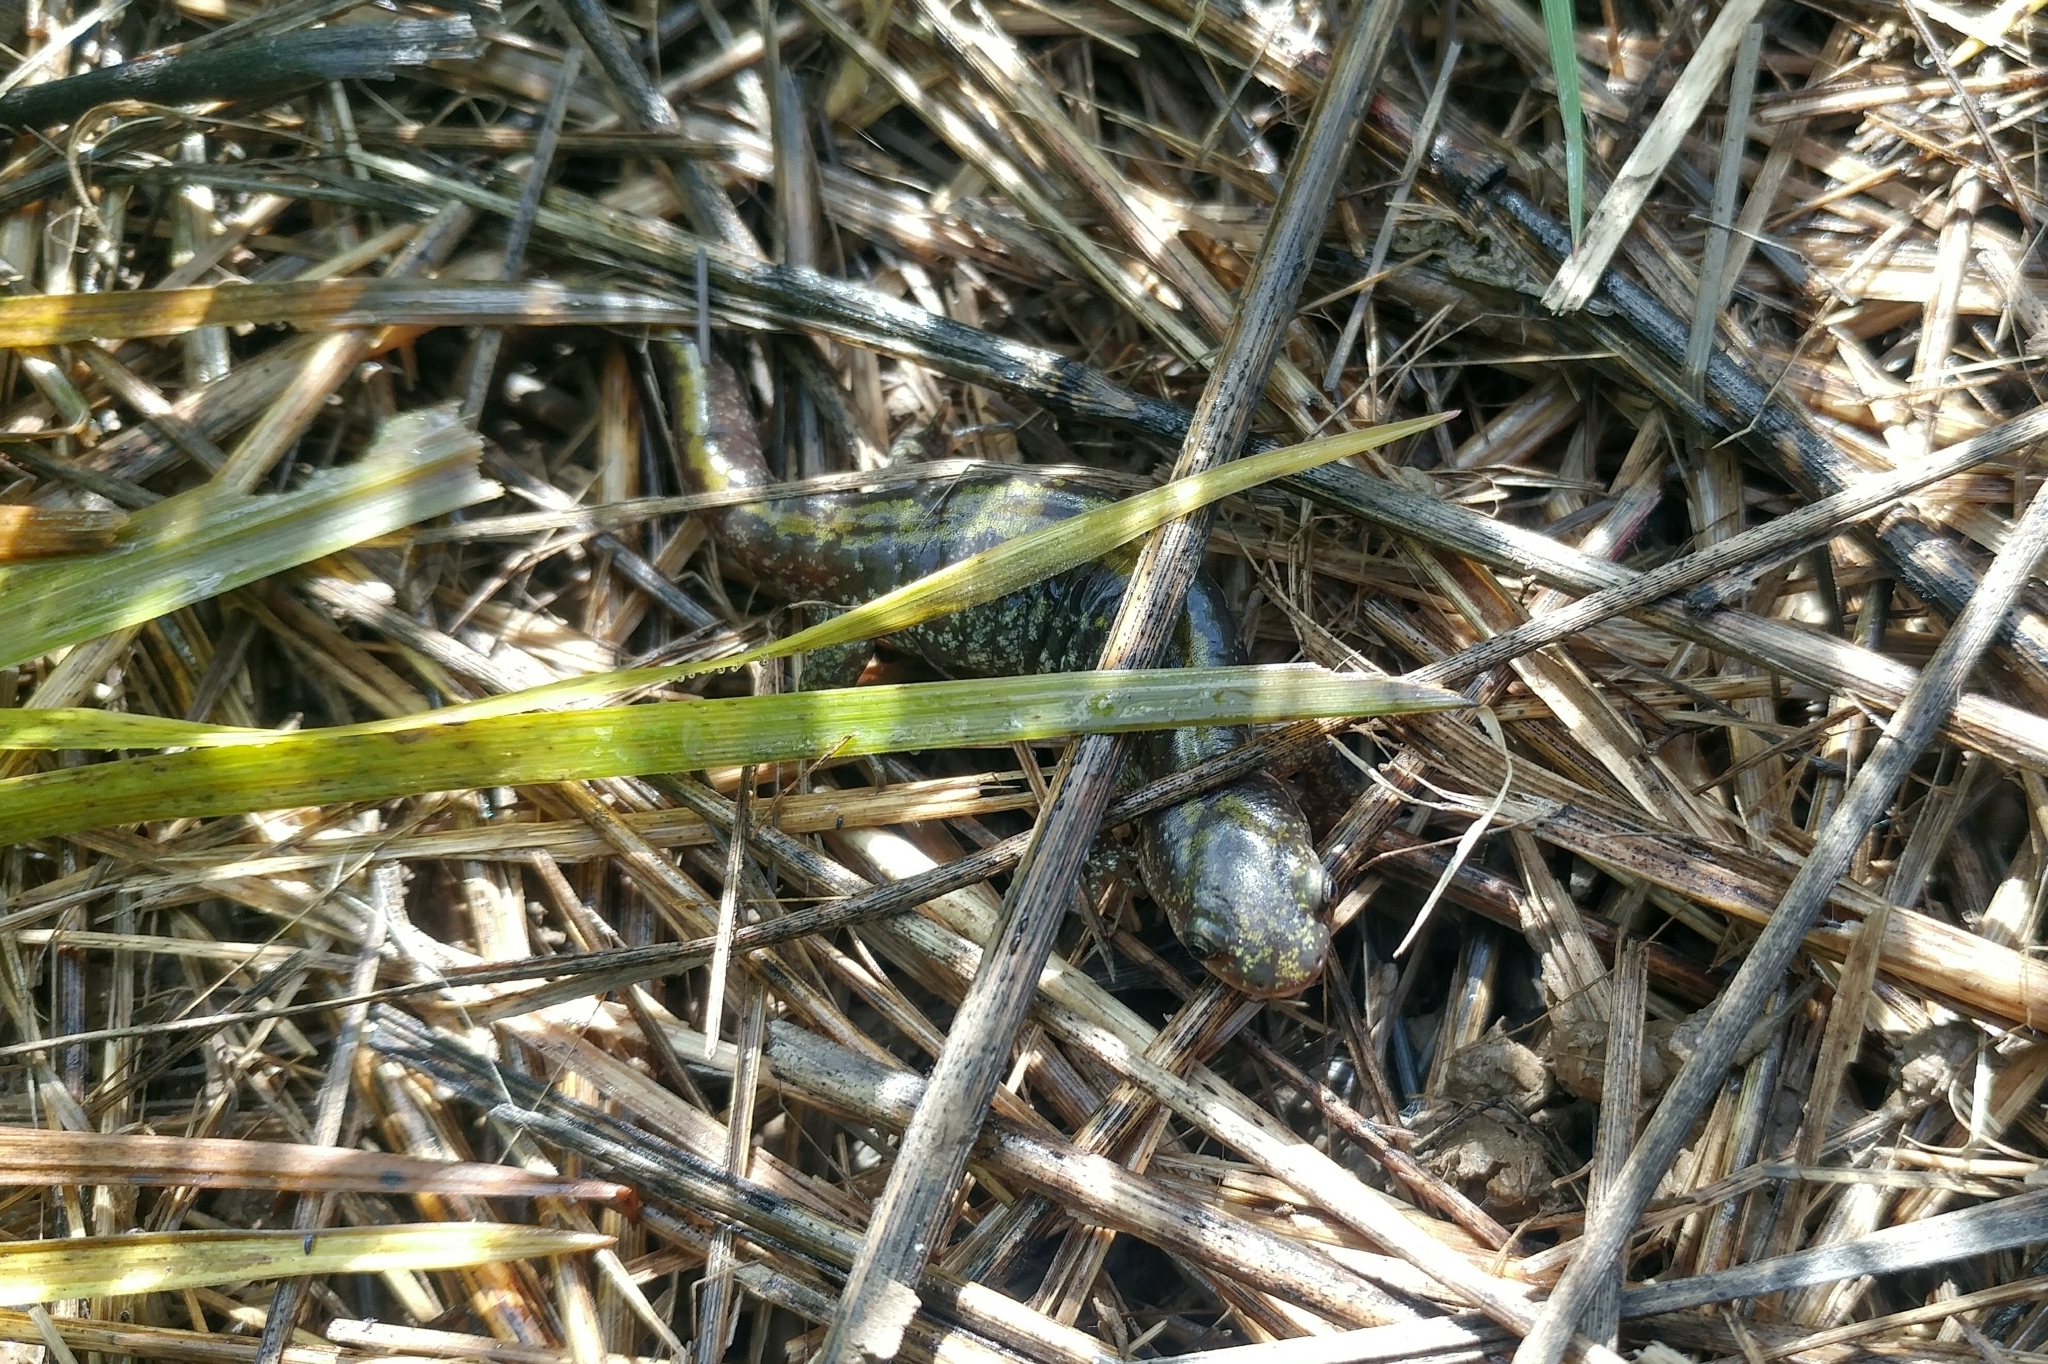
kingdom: Animalia
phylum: Chordata
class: Amphibia
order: Caudata
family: Ambystomatidae
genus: Ambystoma
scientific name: Ambystoma macrodactylum
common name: Long-toed salamander
